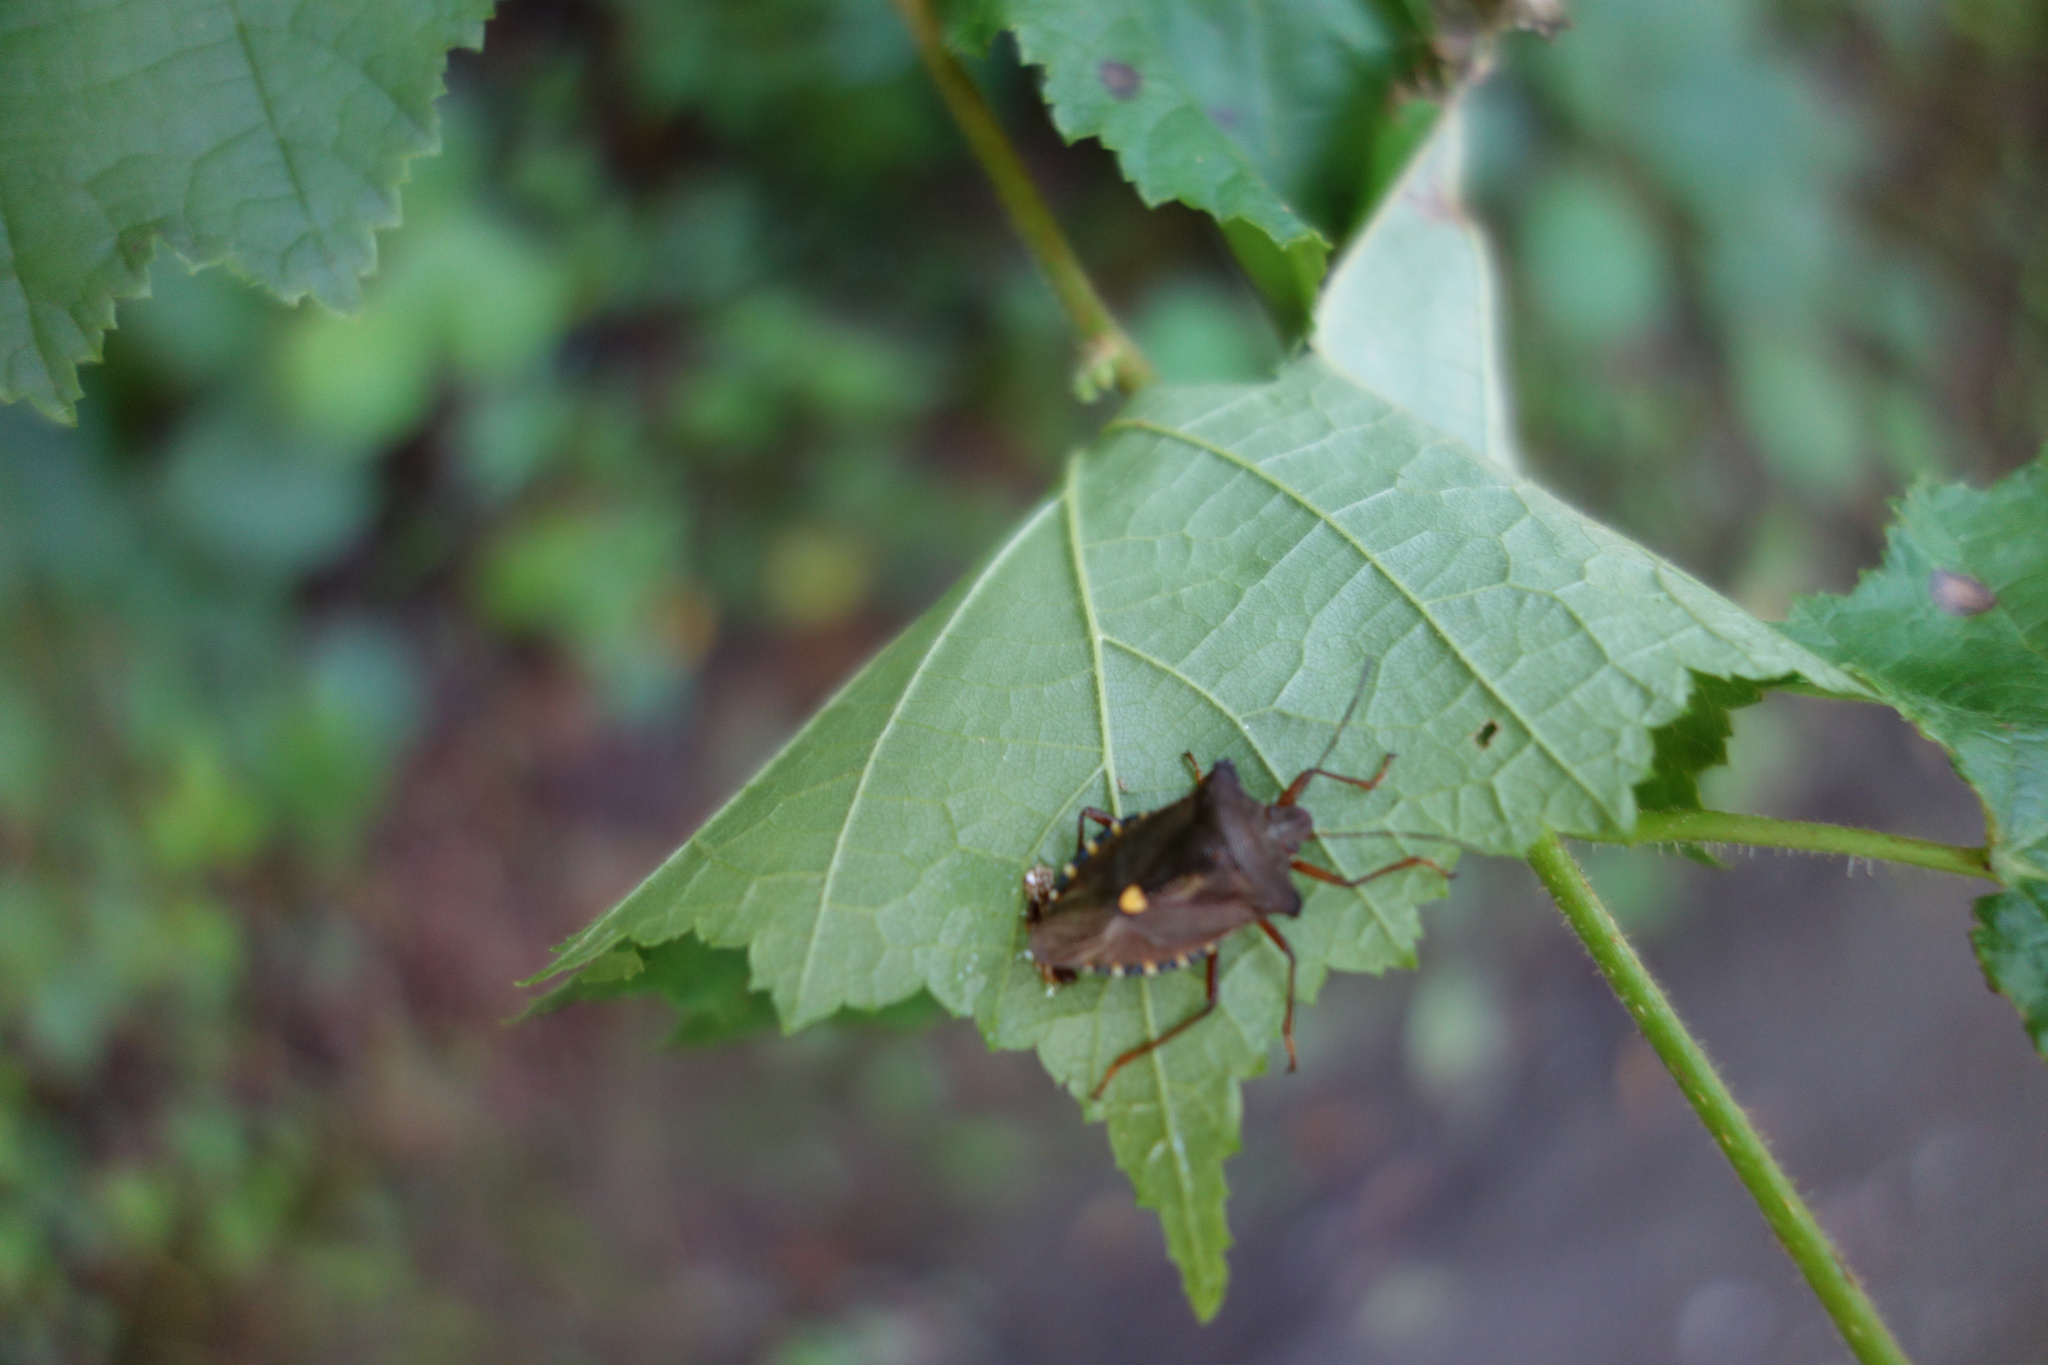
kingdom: Animalia
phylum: Arthropoda
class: Insecta
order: Hemiptera
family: Pentatomidae
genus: Pentatoma
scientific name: Pentatoma rufipes
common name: Forest bug
